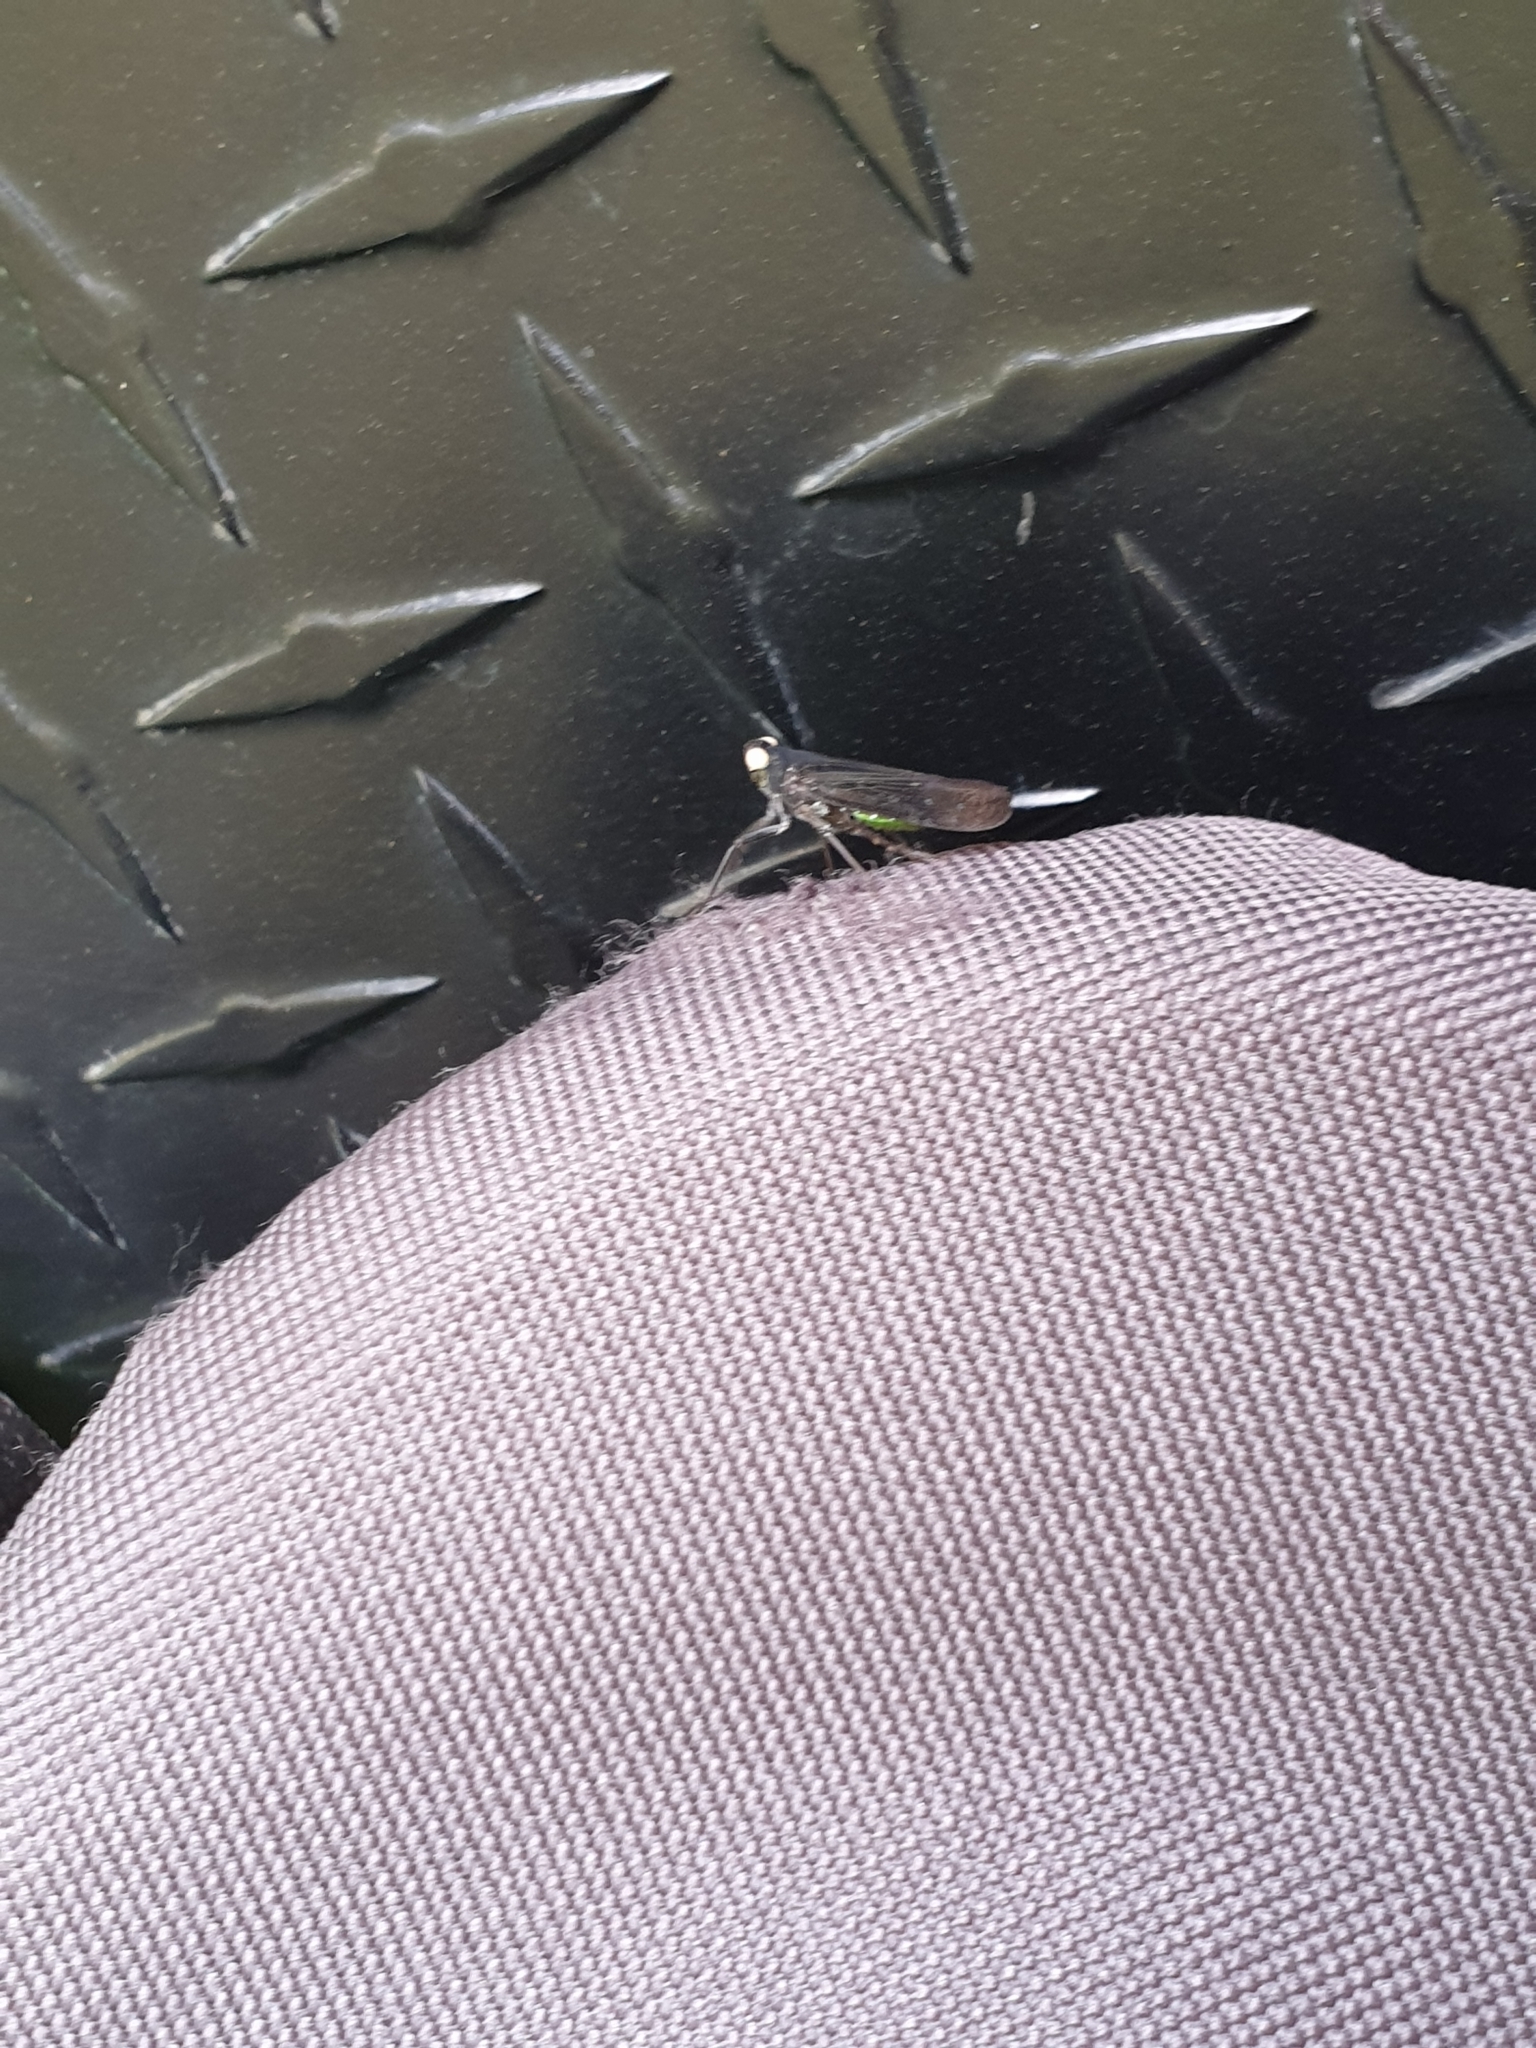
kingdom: Animalia
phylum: Arthropoda
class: Insecta
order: Hemiptera
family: Fulgoridae
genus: Desudaba
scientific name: Desudaba psittacus
